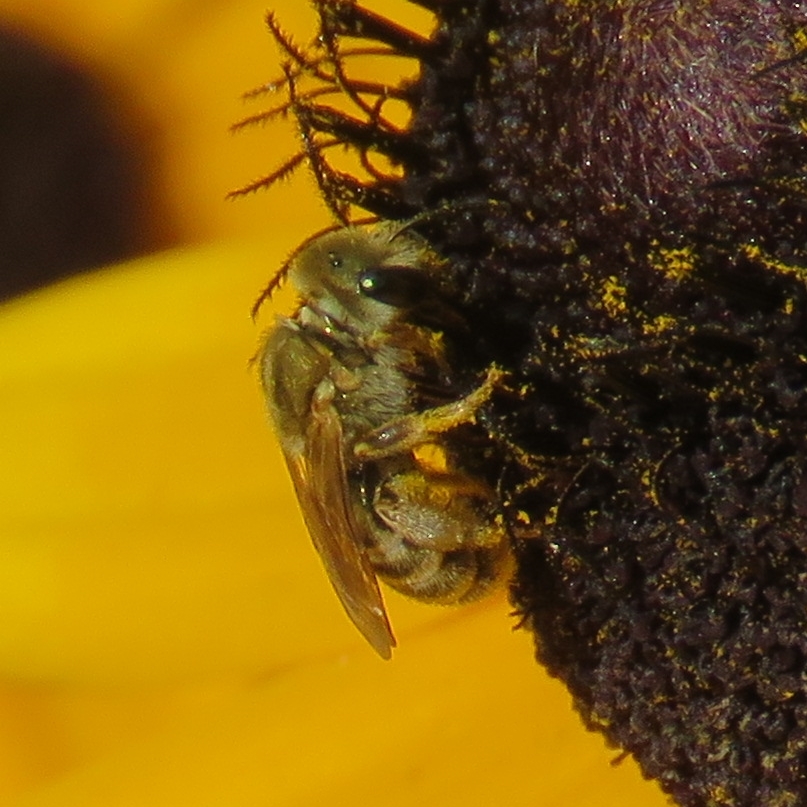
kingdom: Animalia
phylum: Arthropoda
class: Insecta
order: Hymenoptera
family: Halictidae
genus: Halictus
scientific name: Halictus subauratus
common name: Golden furrow bee
